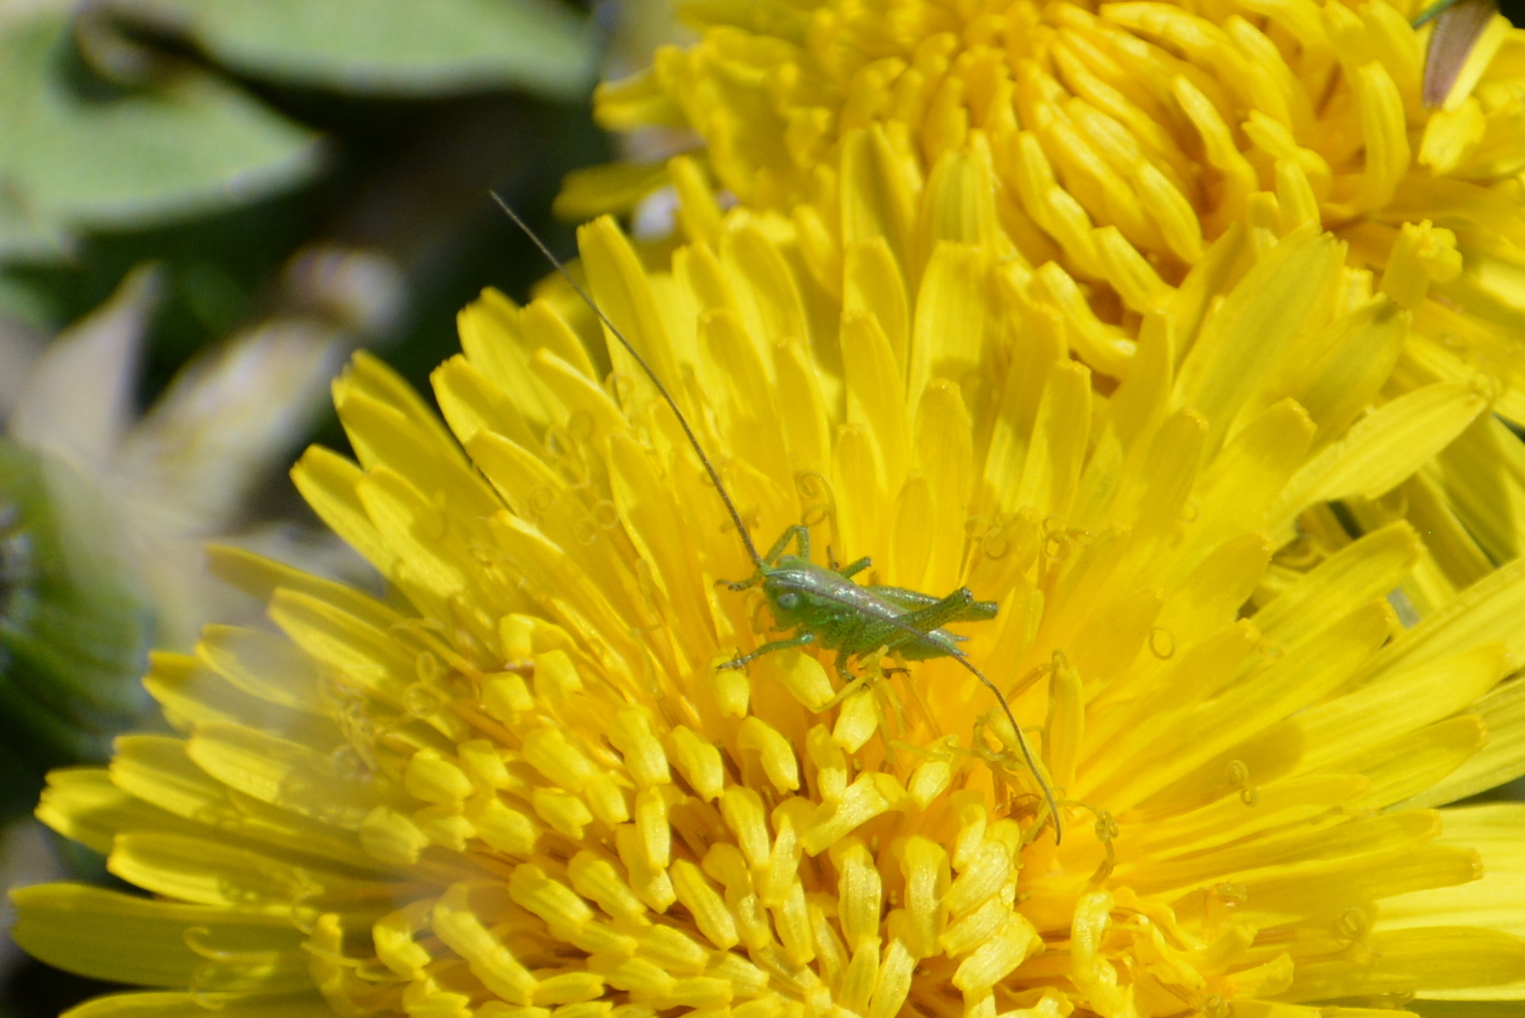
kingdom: Animalia
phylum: Arthropoda
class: Insecta
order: Orthoptera
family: Tettigoniidae
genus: Tettigonia
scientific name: Tettigonia viridissima
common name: Great green bush-cricket
